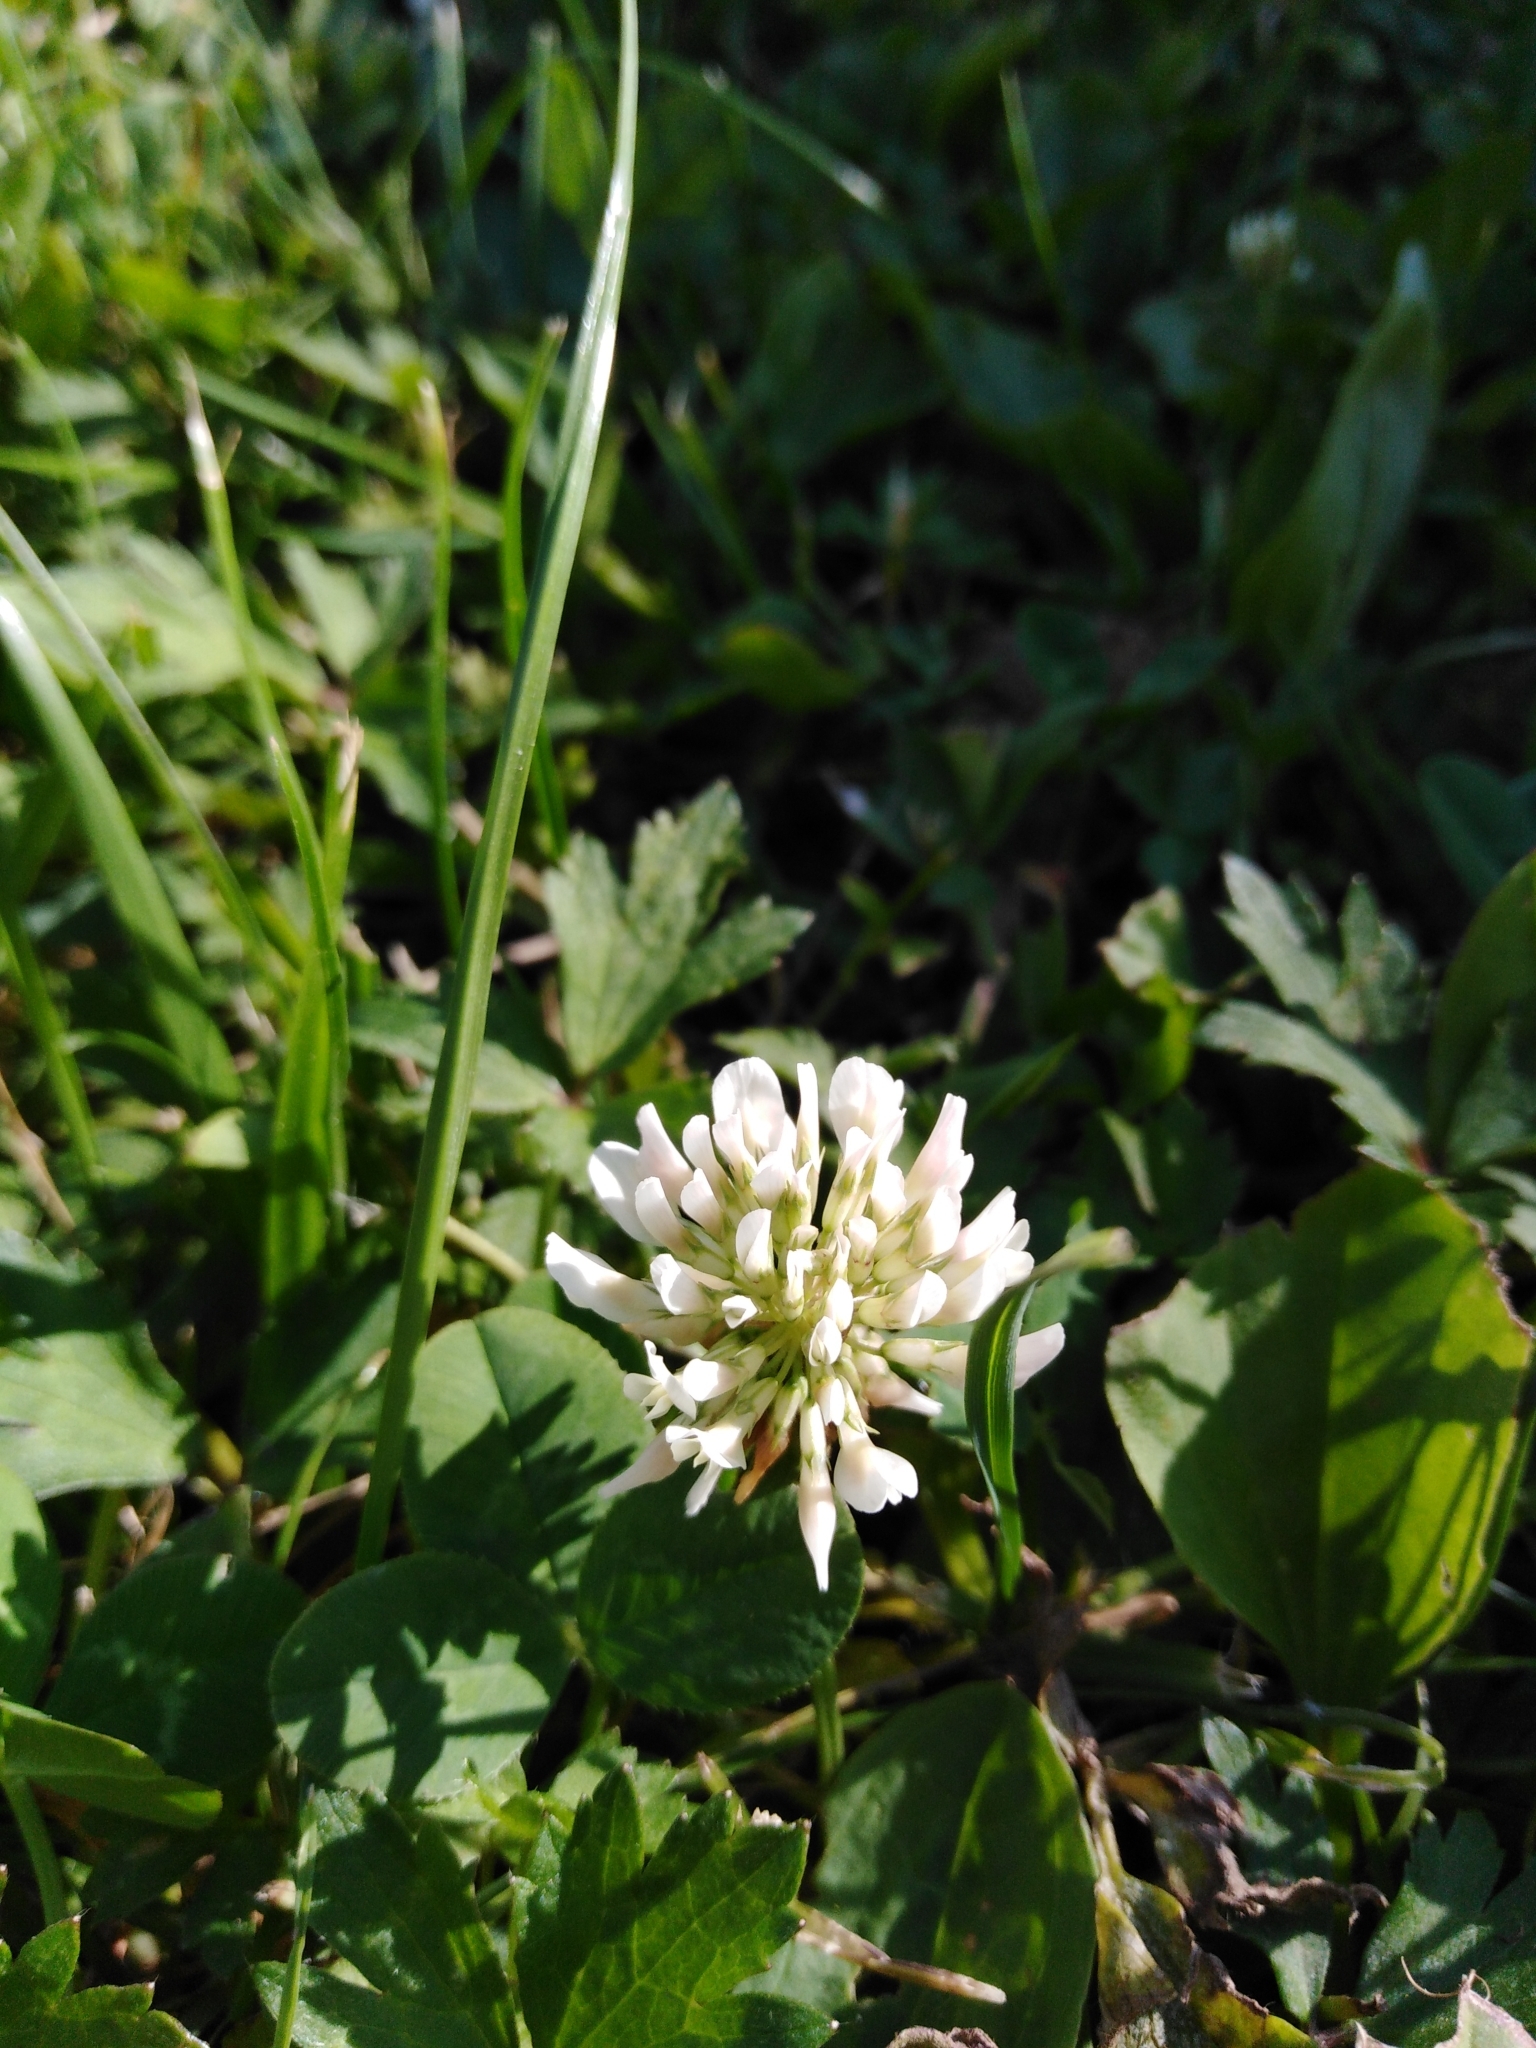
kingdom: Plantae
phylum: Tracheophyta
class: Magnoliopsida
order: Fabales
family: Fabaceae
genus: Trifolium
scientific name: Trifolium repens
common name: White clover
